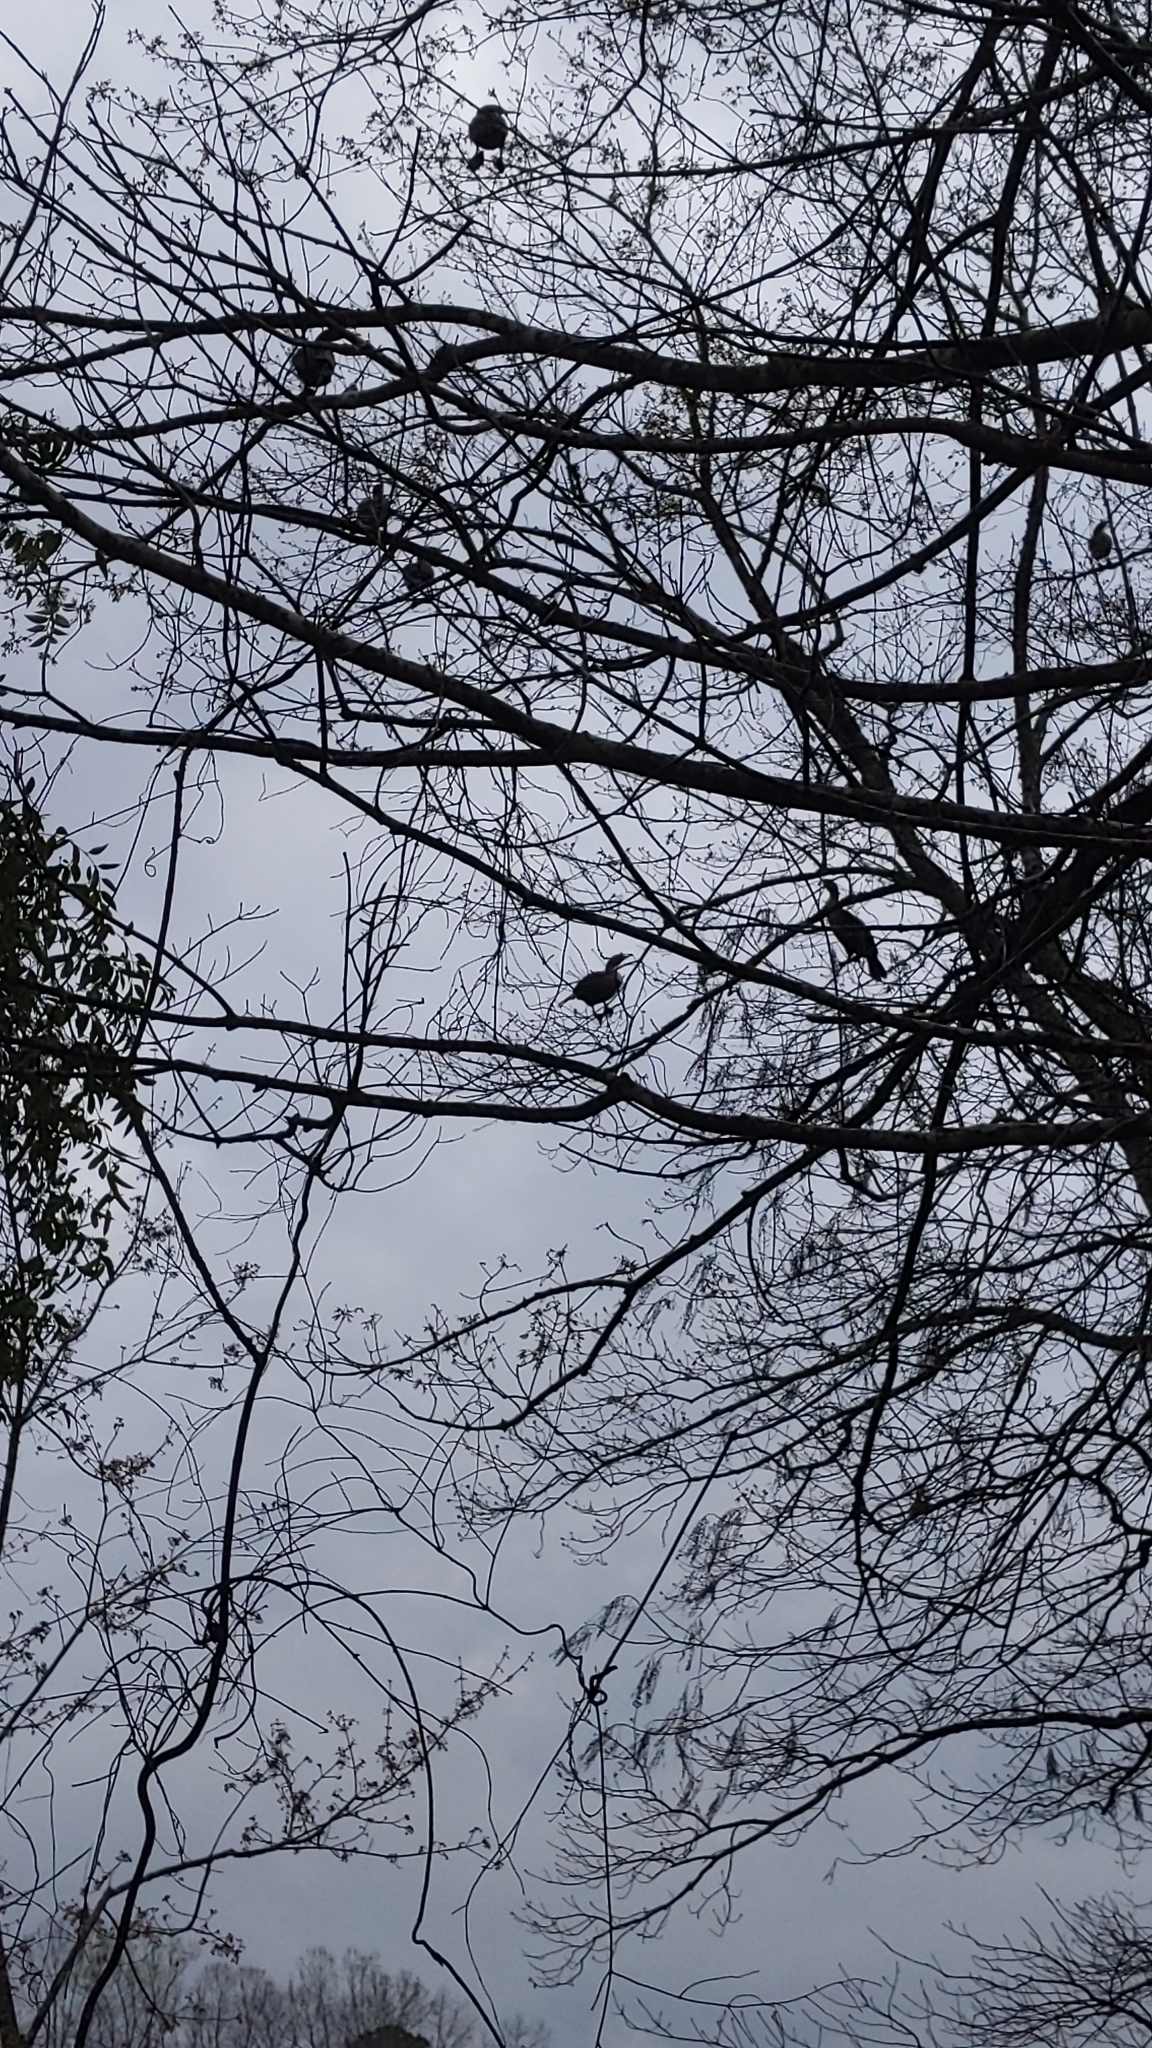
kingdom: Animalia
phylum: Chordata
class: Aves
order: Suliformes
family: Phalacrocoracidae
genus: Phalacrocorax
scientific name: Phalacrocorax auritus
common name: Double-crested cormorant
